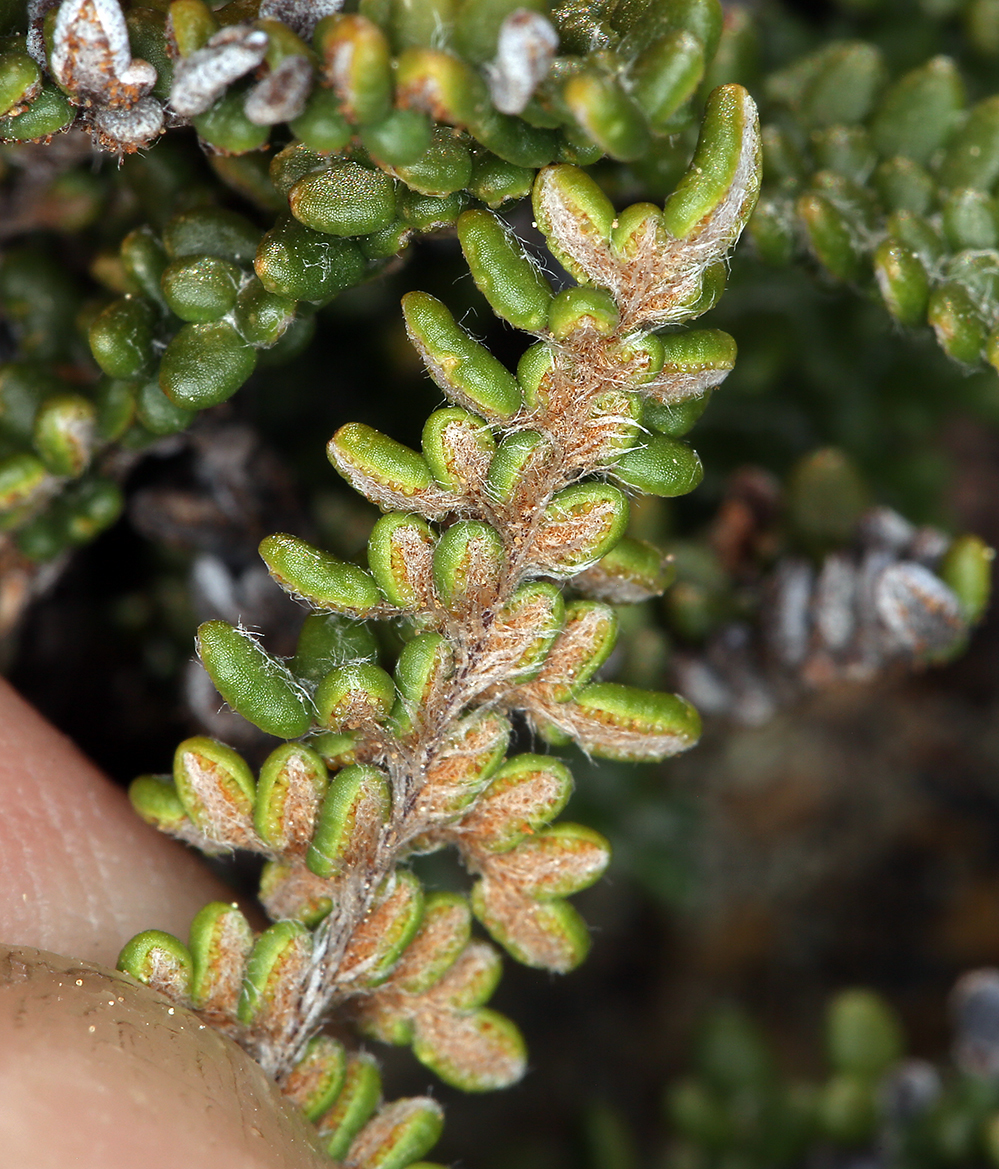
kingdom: Plantae
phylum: Tracheophyta
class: Polypodiopsida
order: Polypodiales
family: Pteridaceae
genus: Myriopteris
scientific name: Myriopteris gracillima
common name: Lace fern
